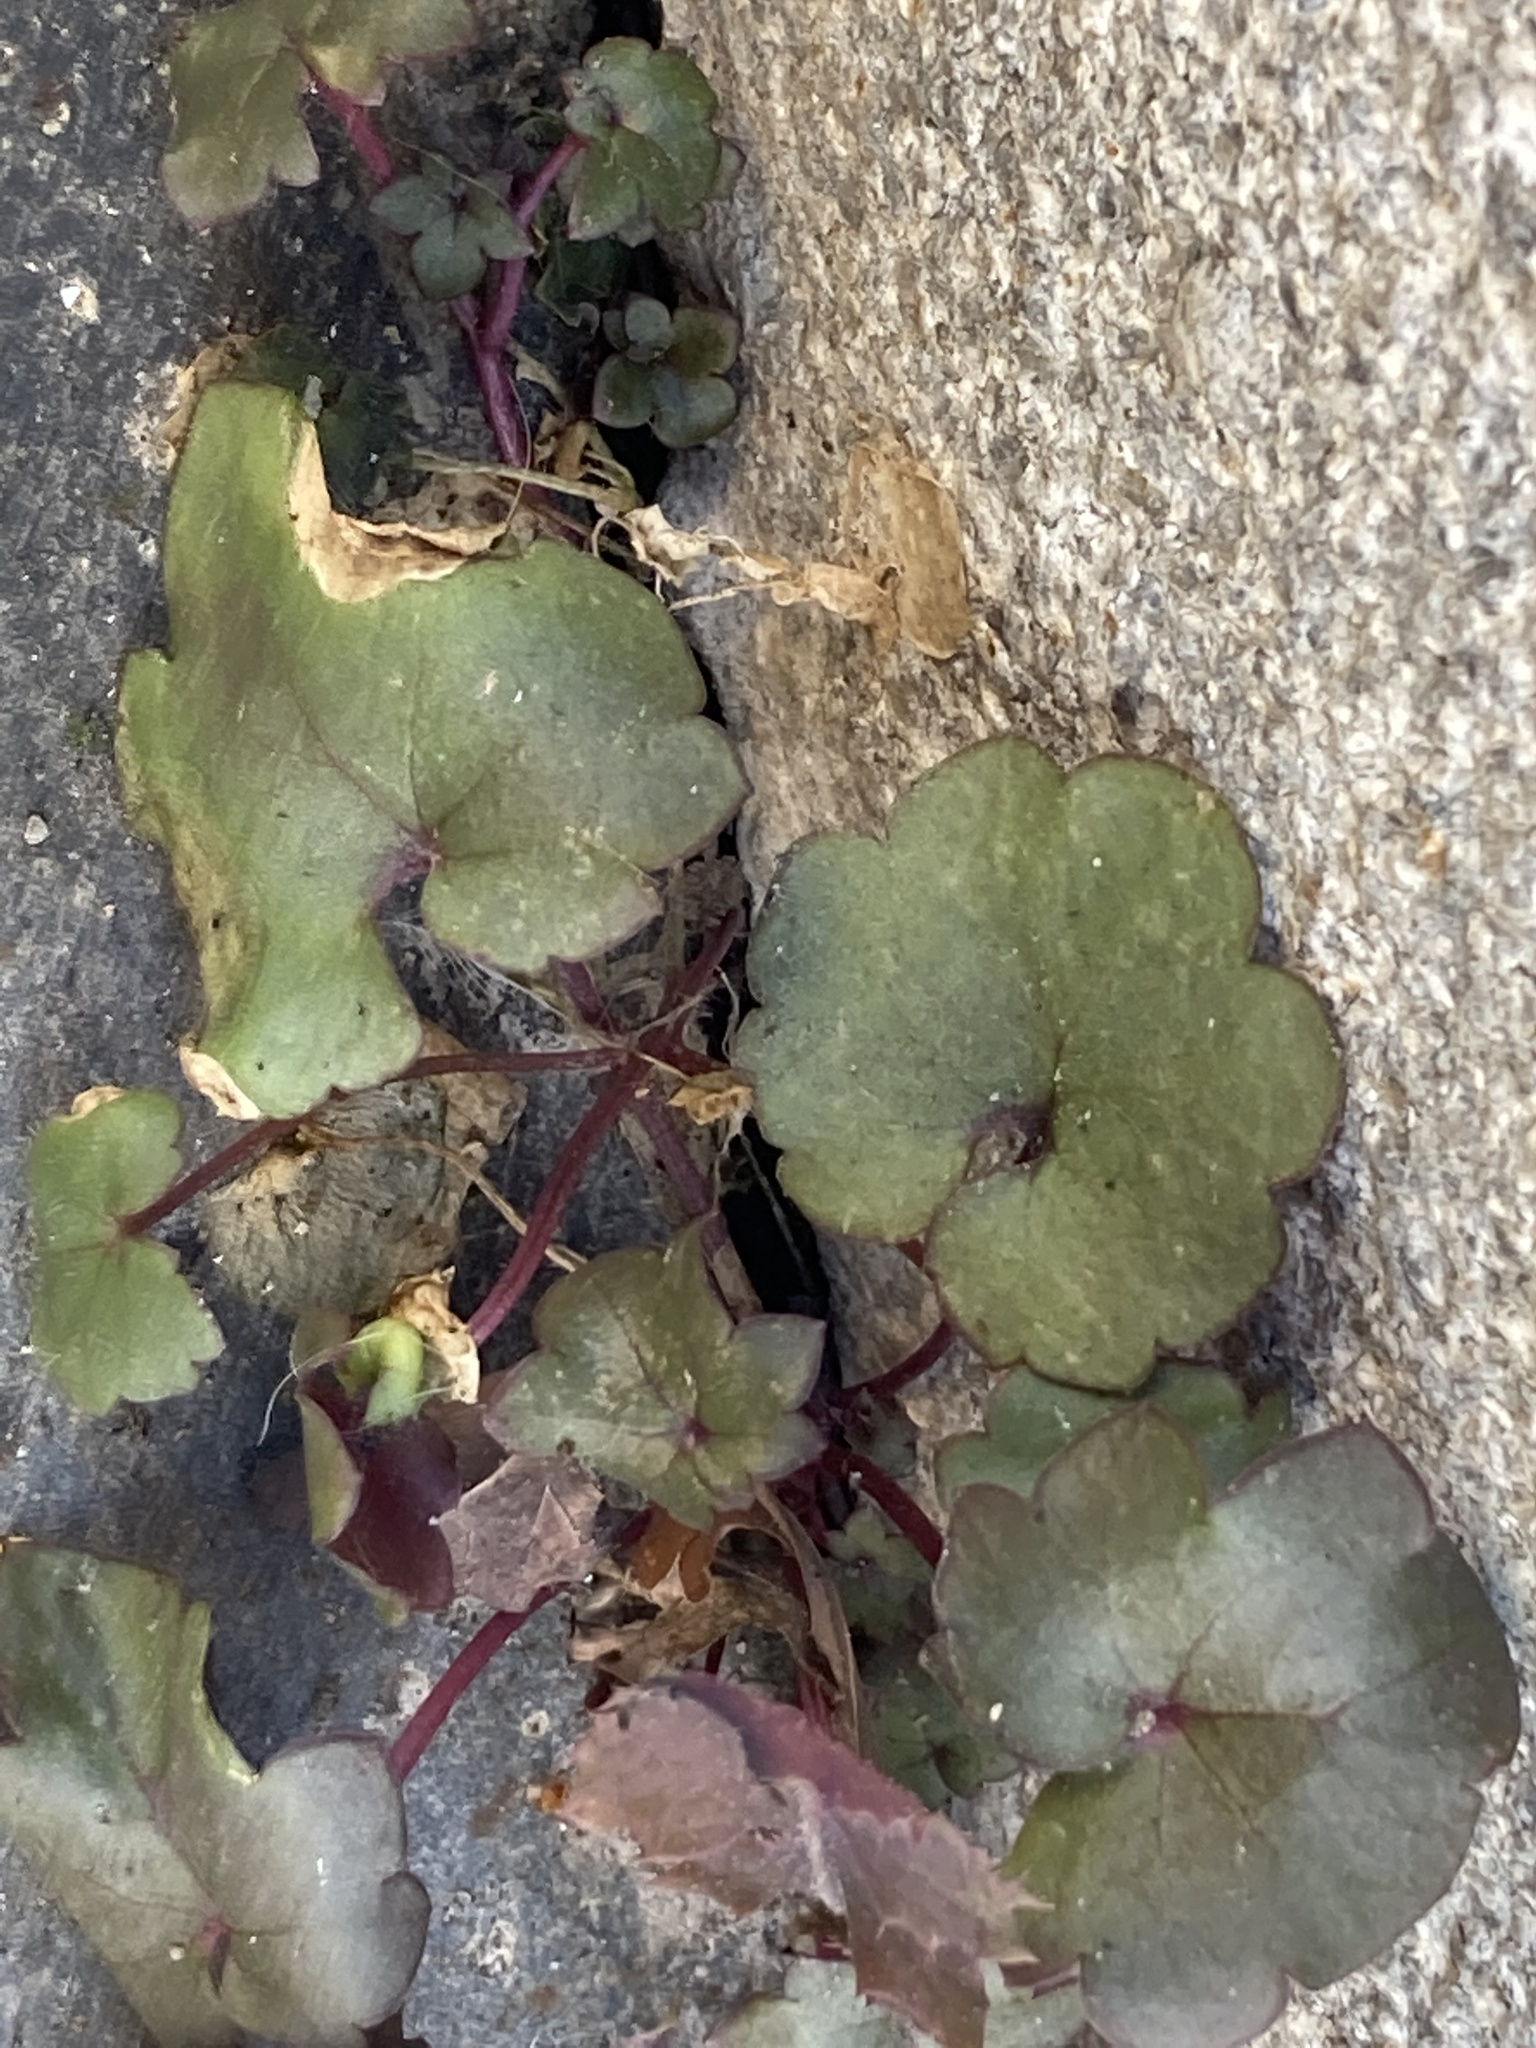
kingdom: Plantae
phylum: Tracheophyta
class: Magnoliopsida
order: Lamiales
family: Plantaginaceae
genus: Cymbalaria
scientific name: Cymbalaria muralis
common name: Ivy-leaved toadflax
